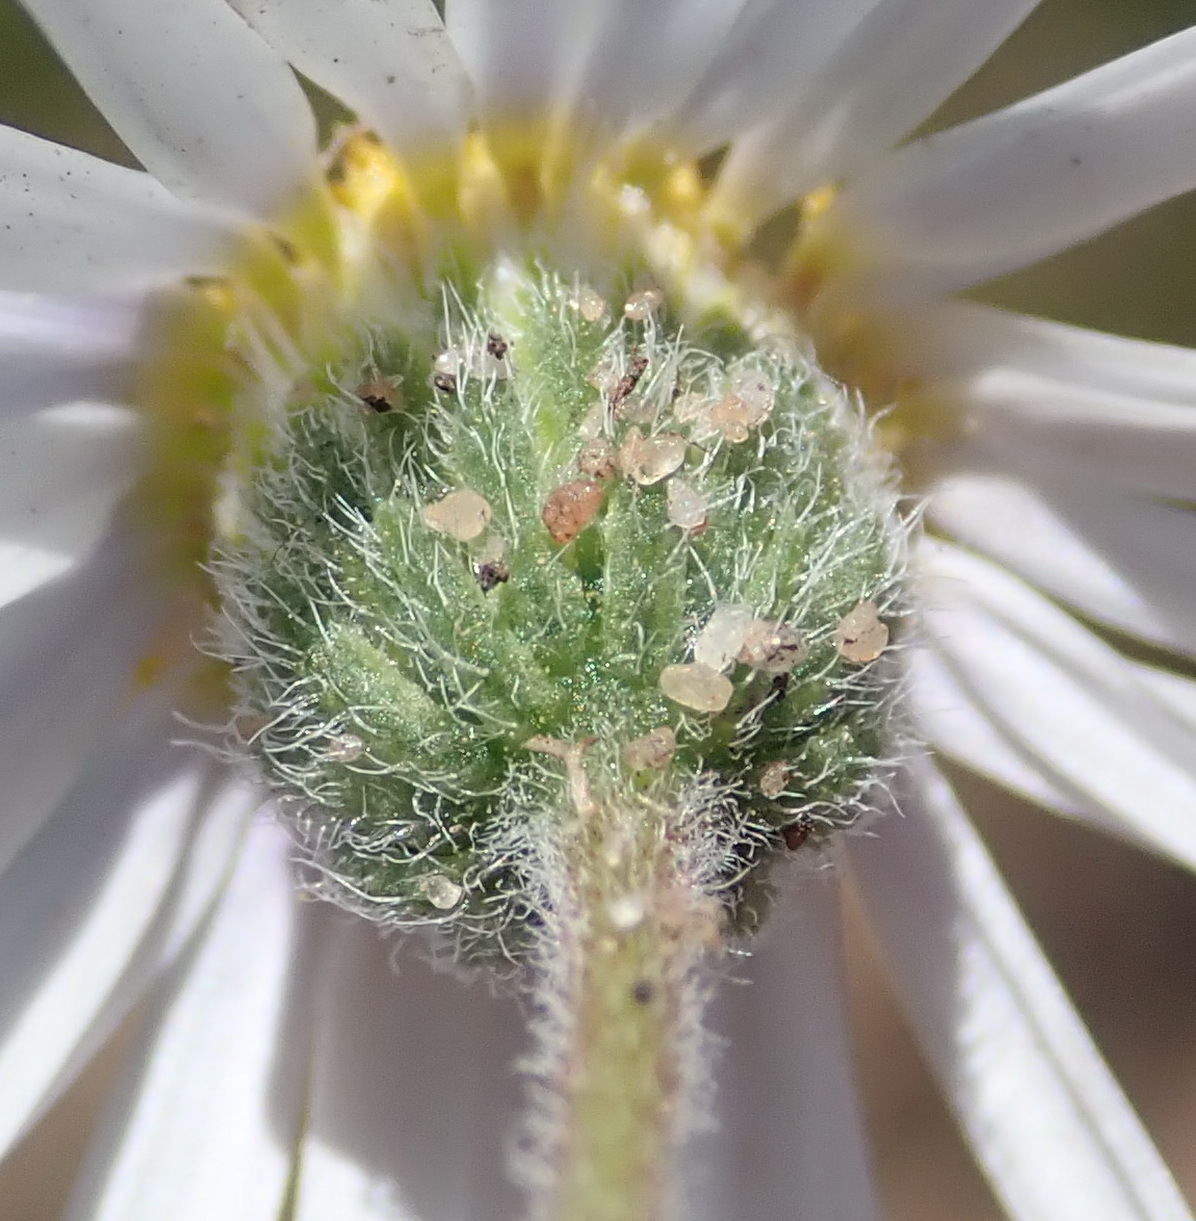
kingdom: Plantae
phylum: Tracheophyta
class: Magnoliopsida
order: Asterales
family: Asteraceae
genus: Felicia
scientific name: Felicia muricata
